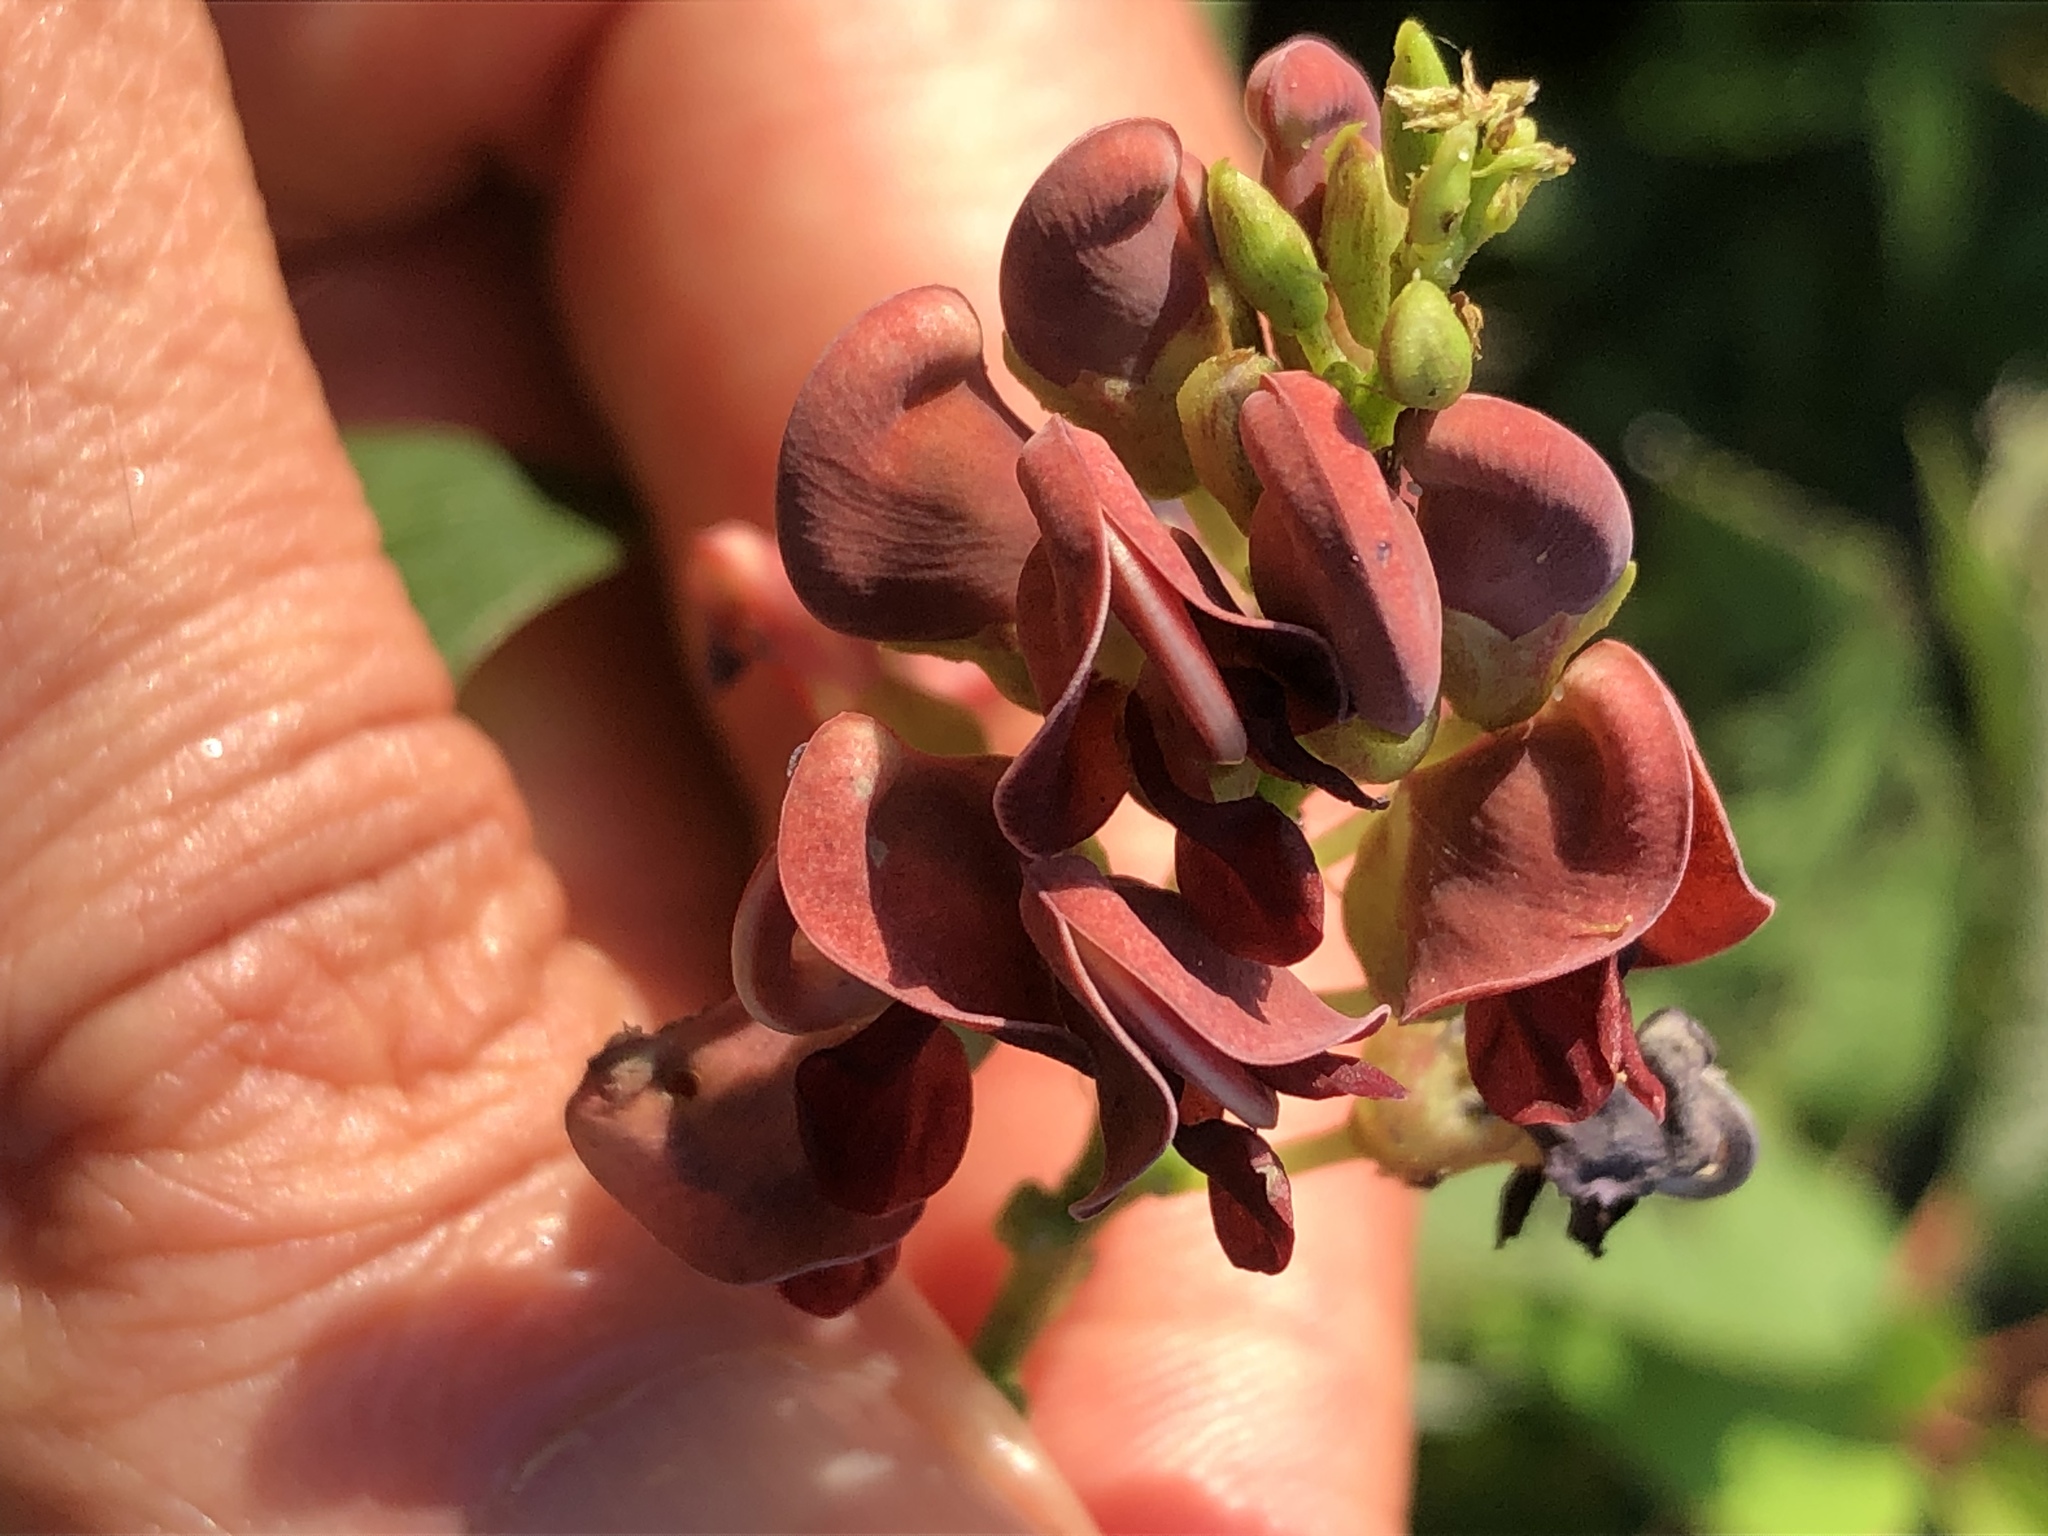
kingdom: Plantae
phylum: Tracheophyta
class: Magnoliopsida
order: Fabales
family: Fabaceae
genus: Apios
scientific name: Apios americana
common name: American potato-bean
